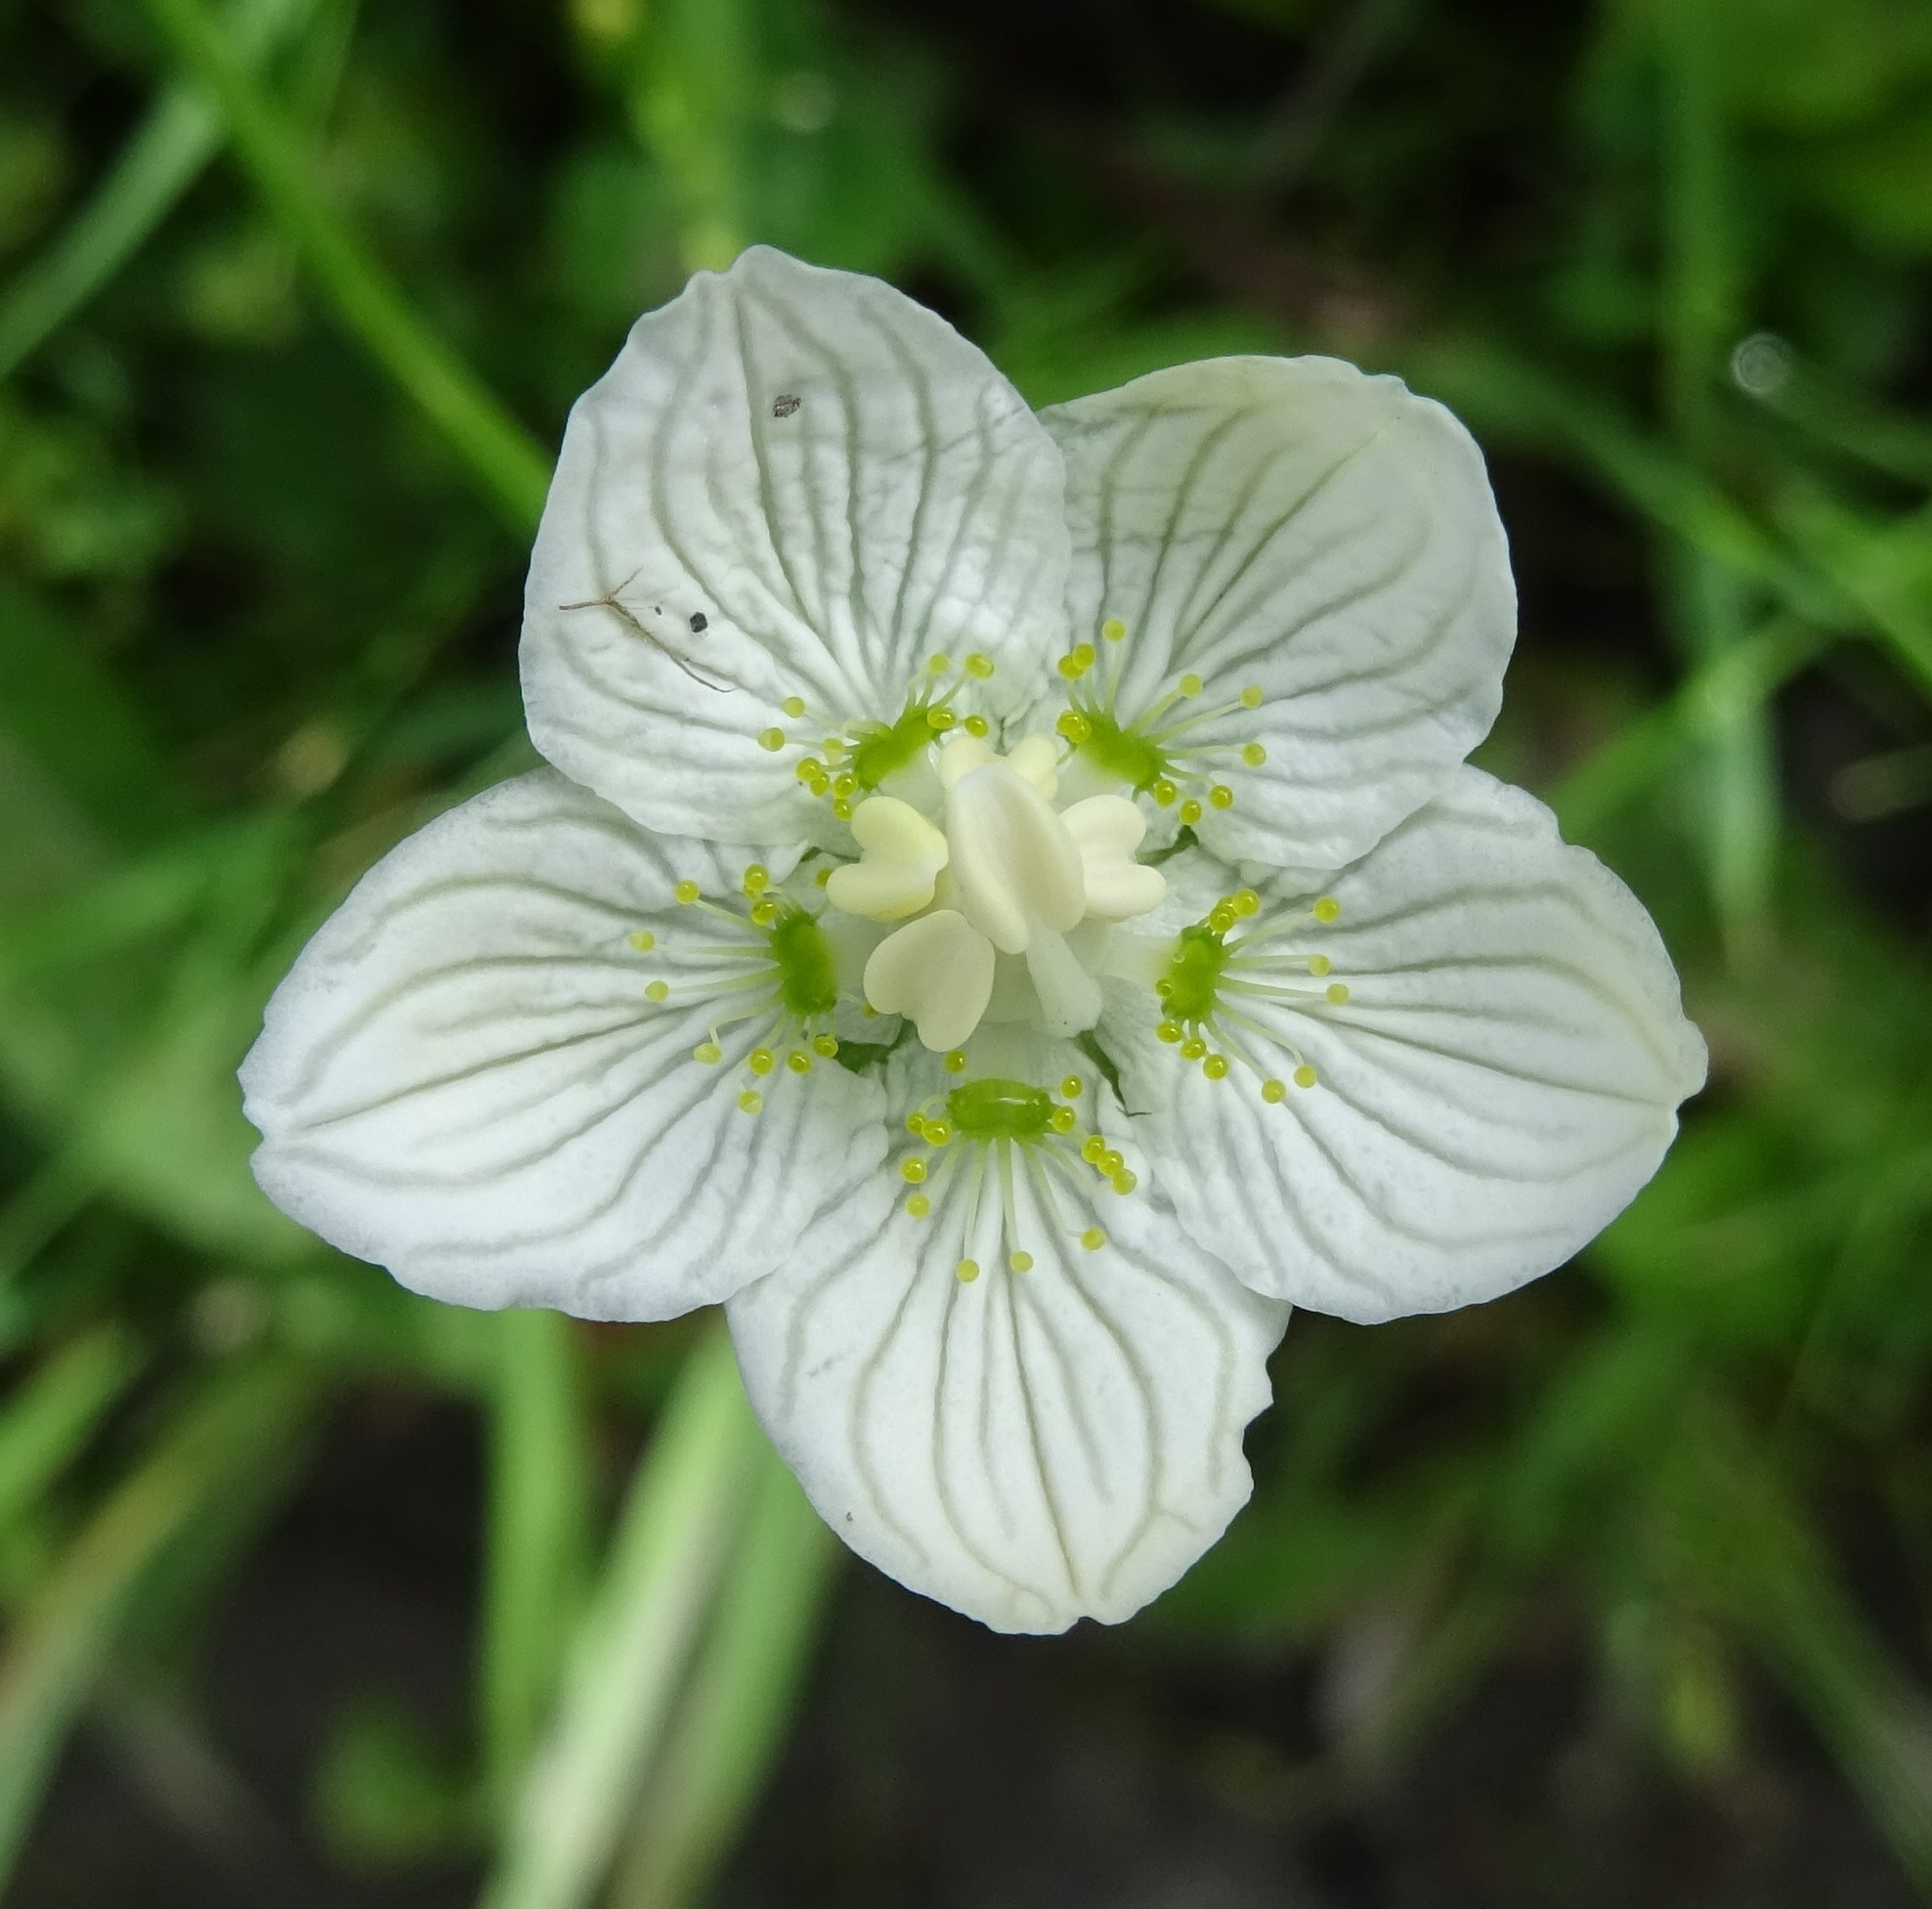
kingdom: Plantae
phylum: Tracheophyta
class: Magnoliopsida
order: Celastrales
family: Parnassiaceae
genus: Parnassia
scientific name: Parnassia palustris
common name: Grass-of-parnassus
